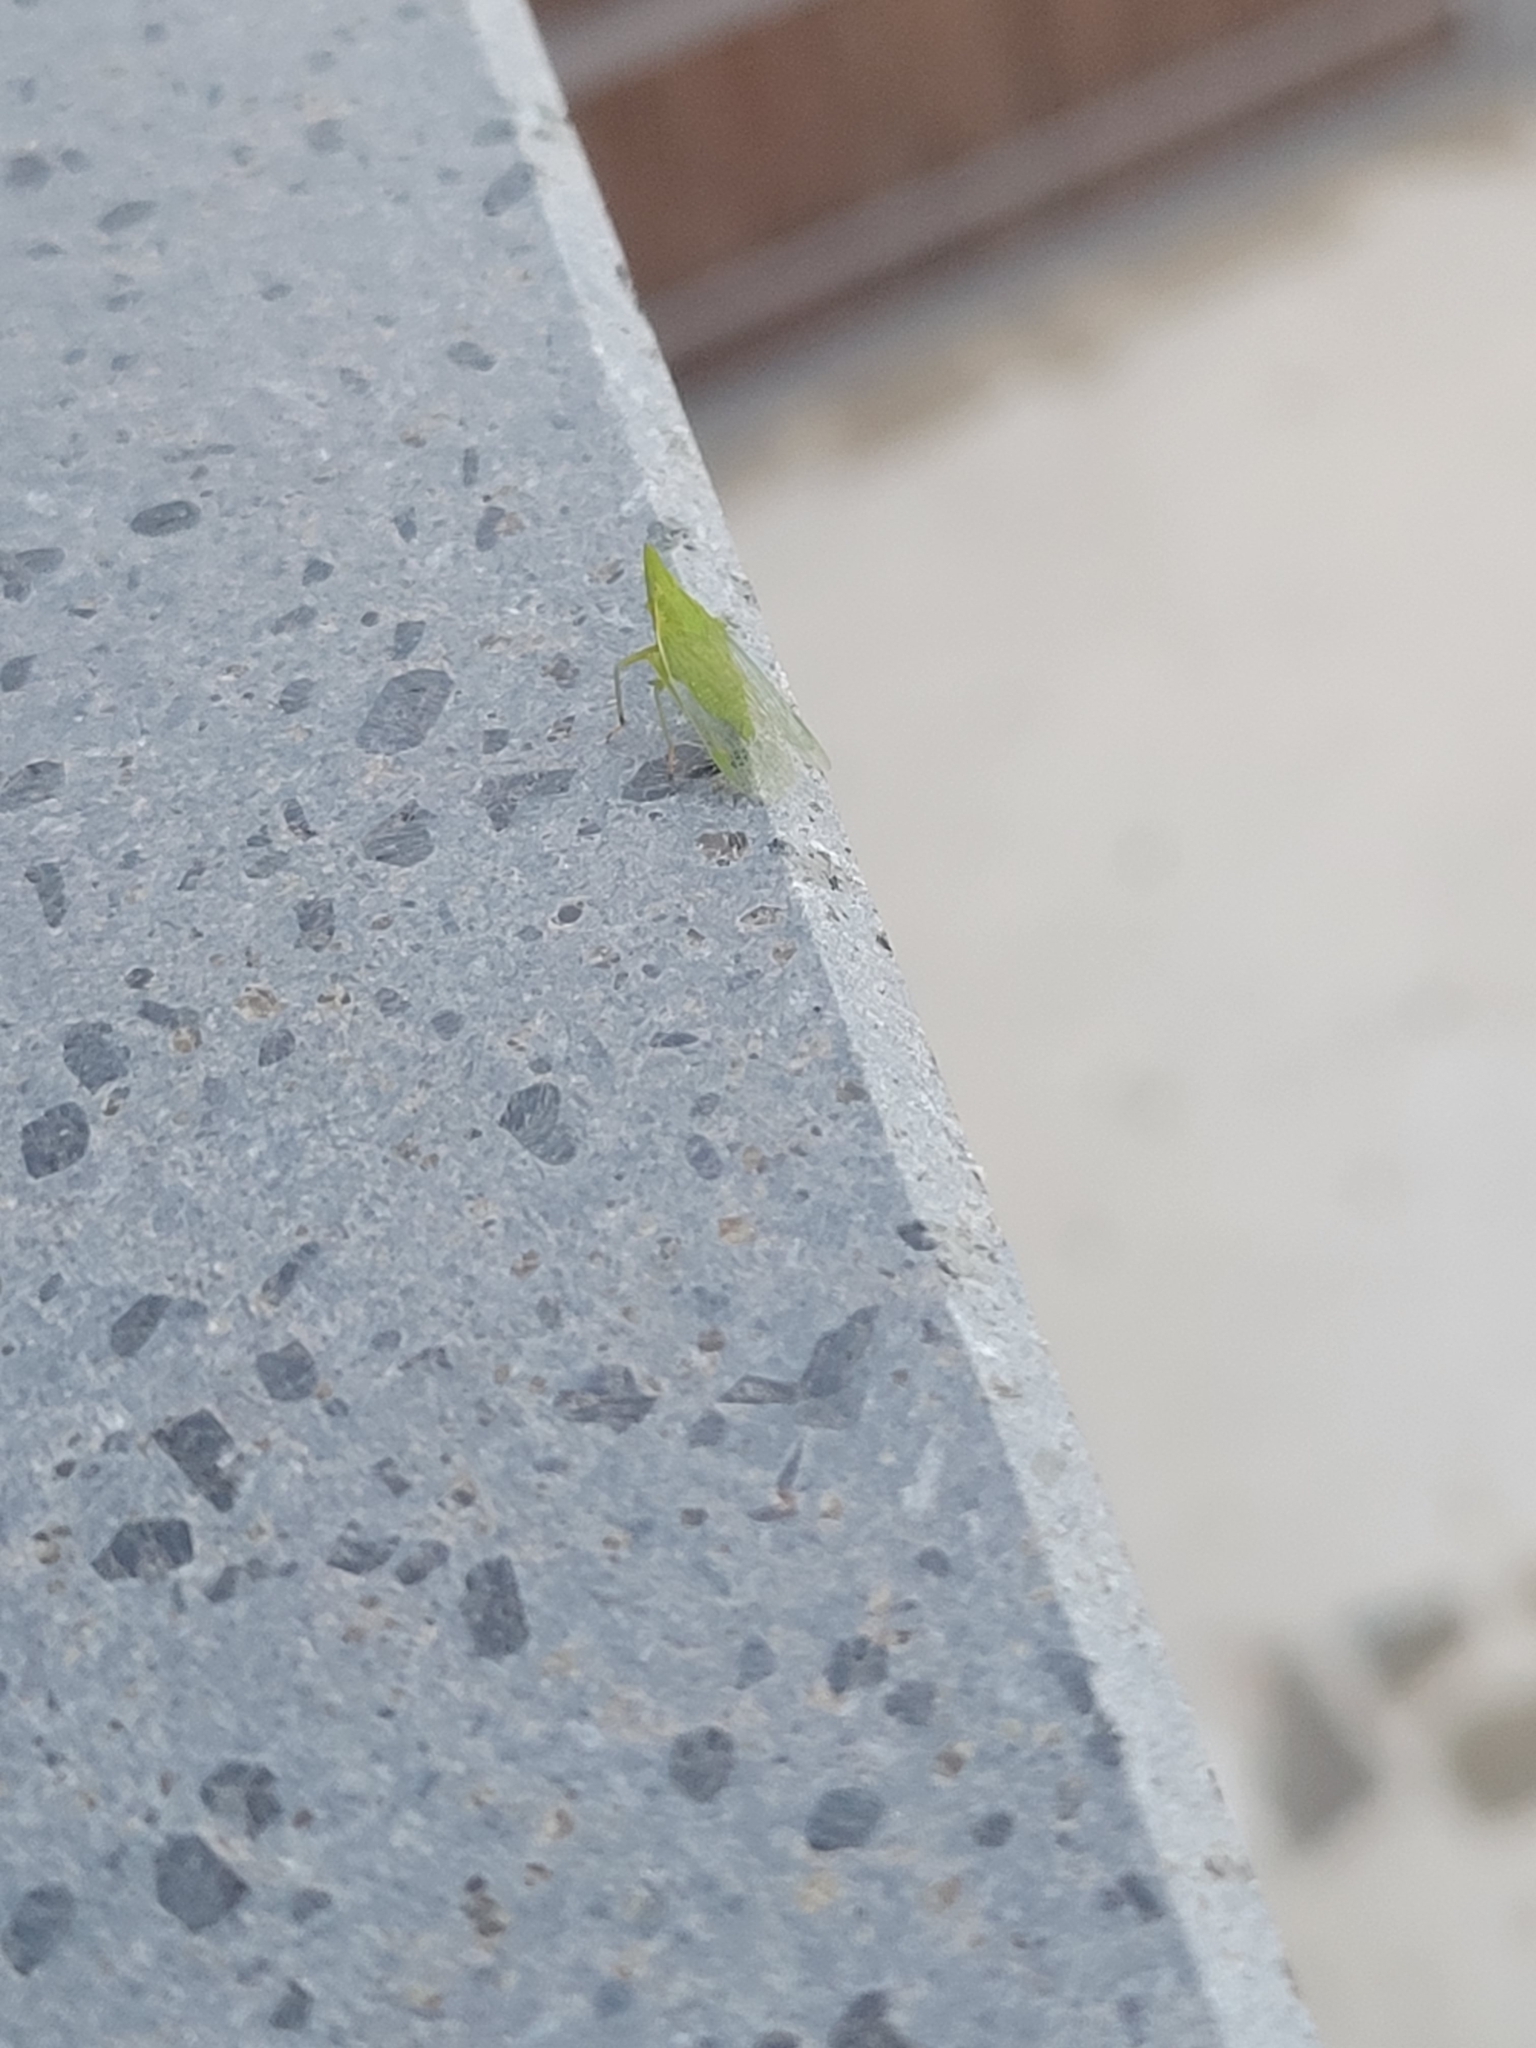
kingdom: Animalia
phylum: Arthropoda
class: Insecta
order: Hemiptera
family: Dictyopharidae
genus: Dictyophara
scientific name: Dictyophara europaea
